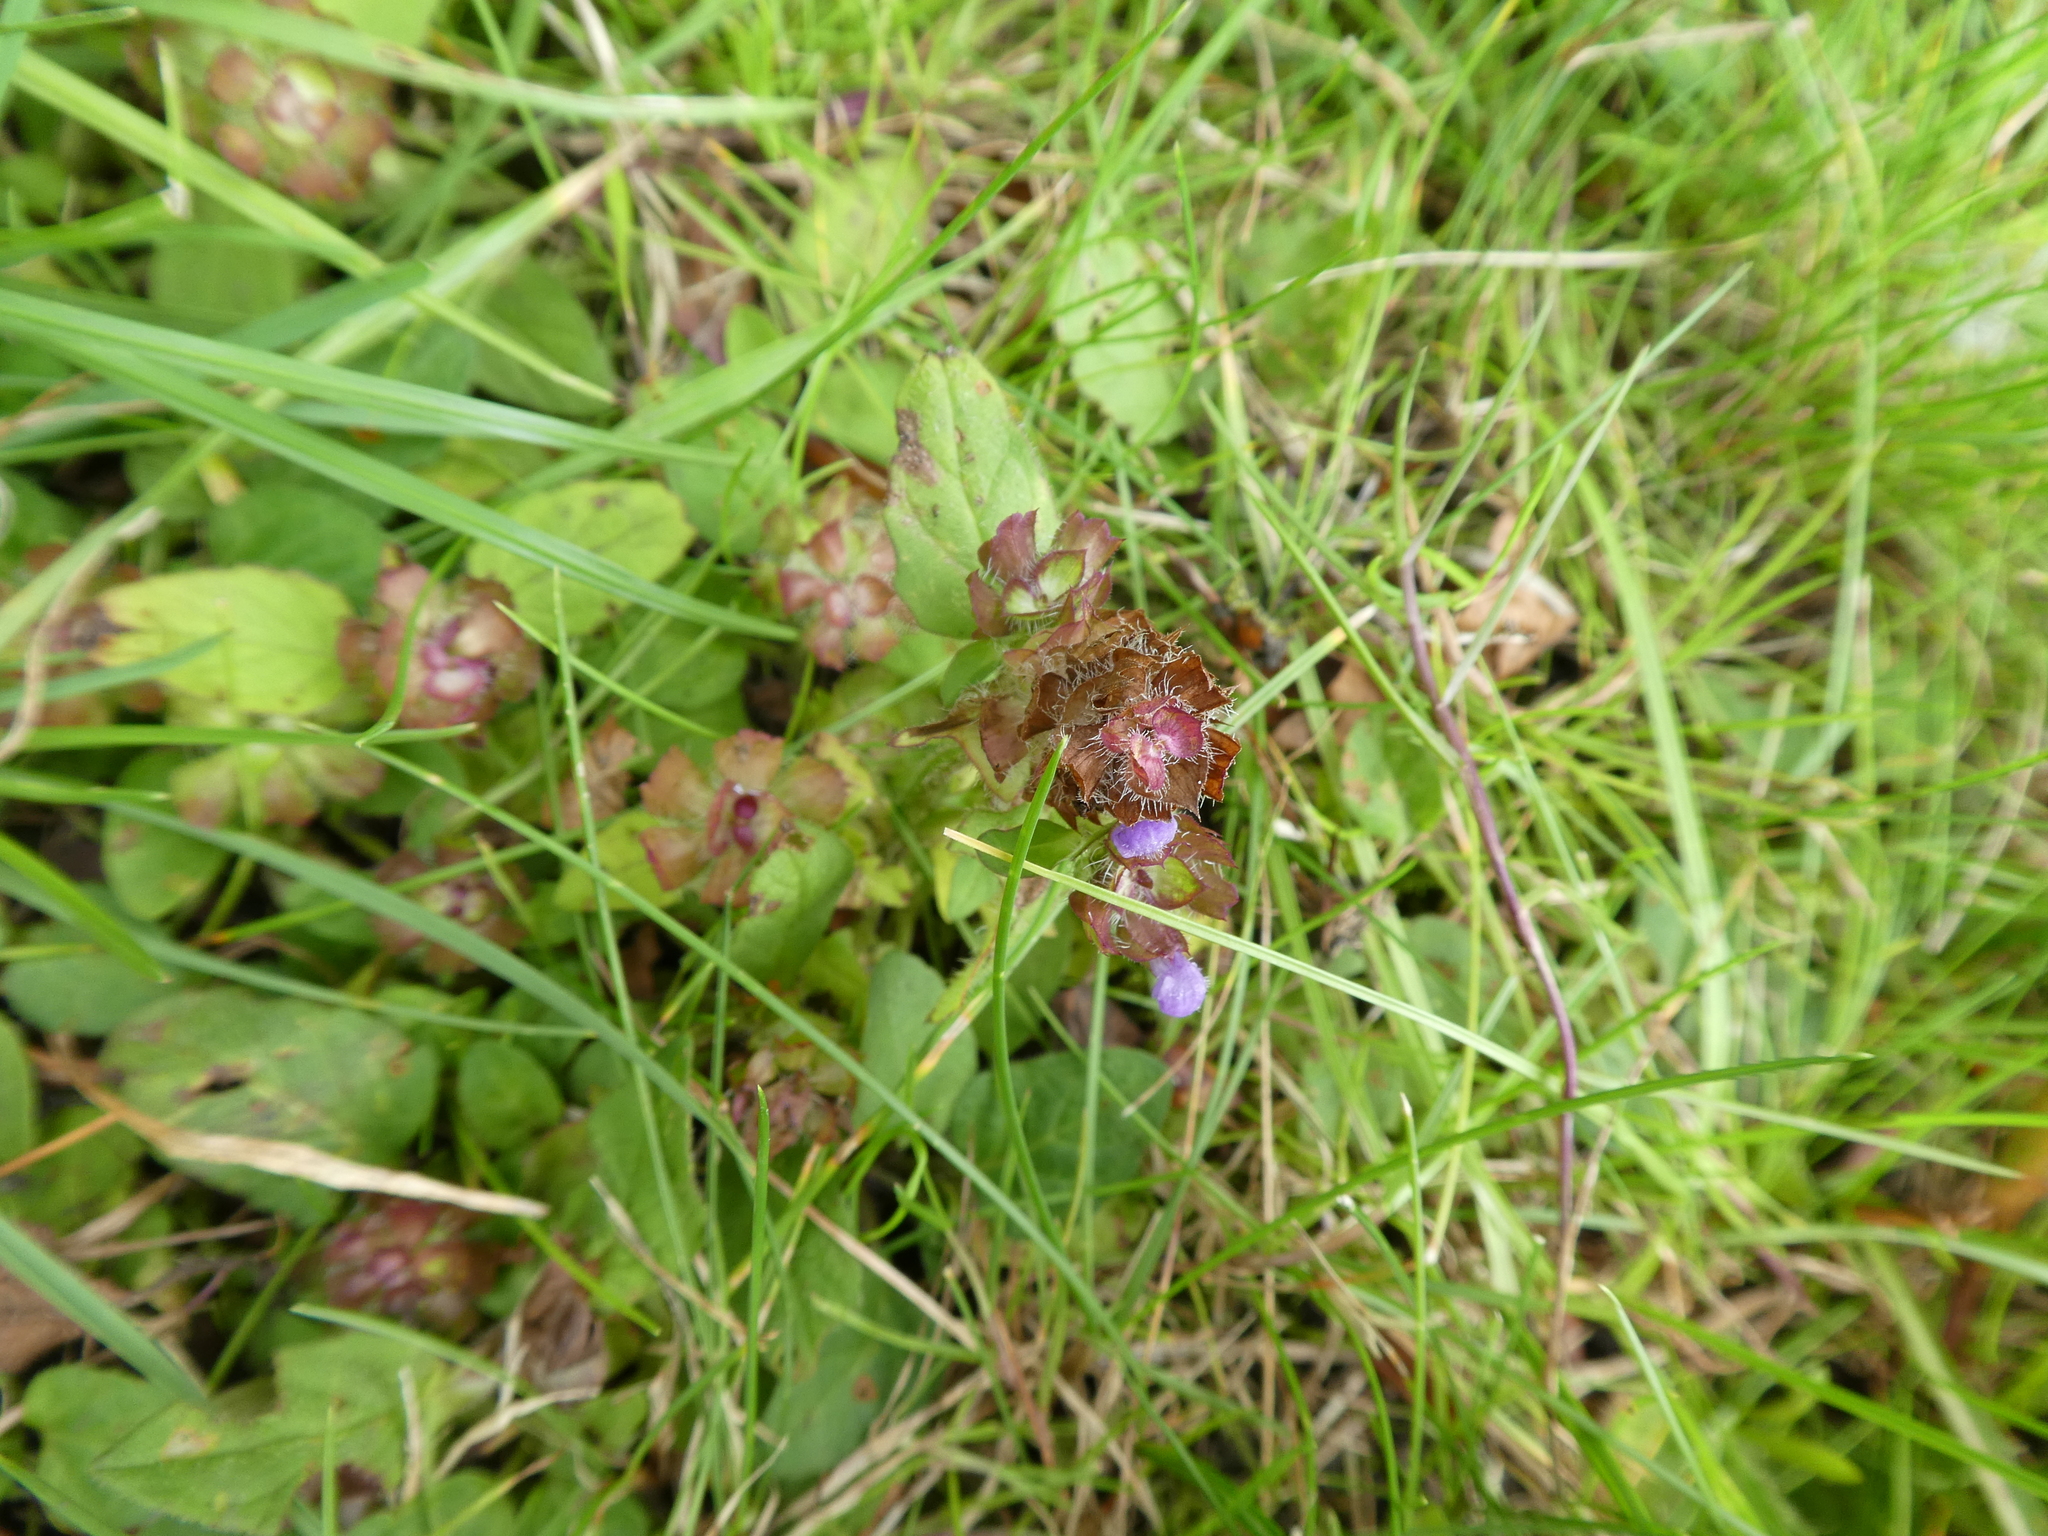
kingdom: Plantae
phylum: Tracheophyta
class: Magnoliopsida
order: Lamiales
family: Lamiaceae
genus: Prunella
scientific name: Prunella vulgaris
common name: Heal-all
